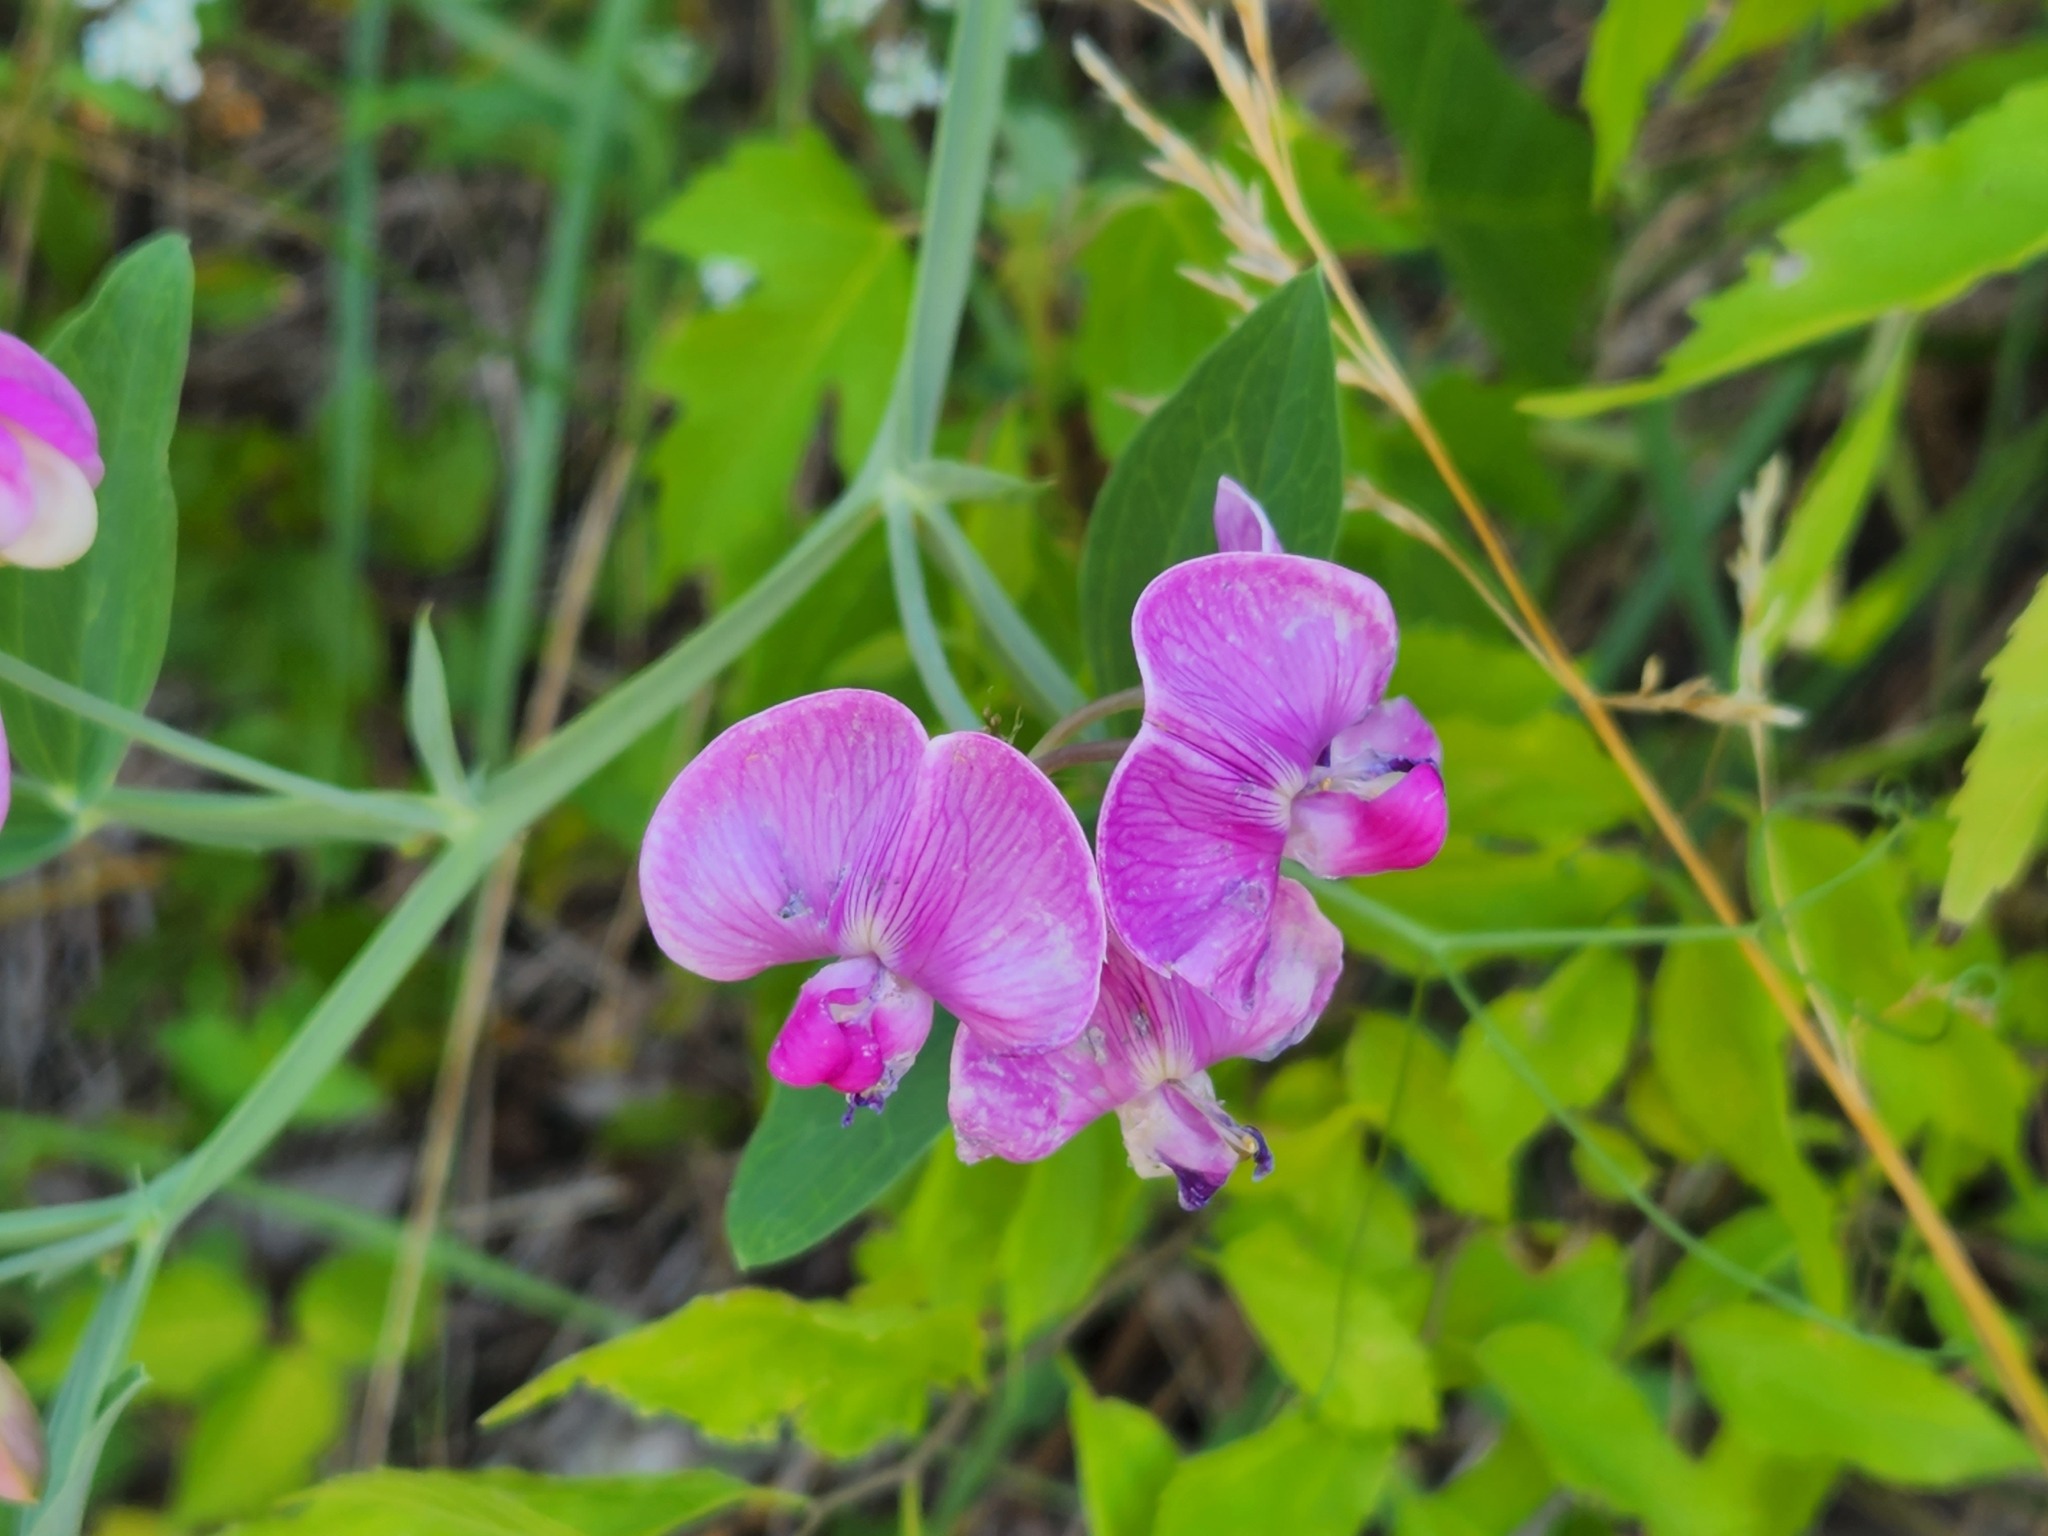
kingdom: Plantae
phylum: Tracheophyta
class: Magnoliopsida
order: Fabales
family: Fabaceae
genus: Lathyrus
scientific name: Lathyrus latifolius
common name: Perennial pea
